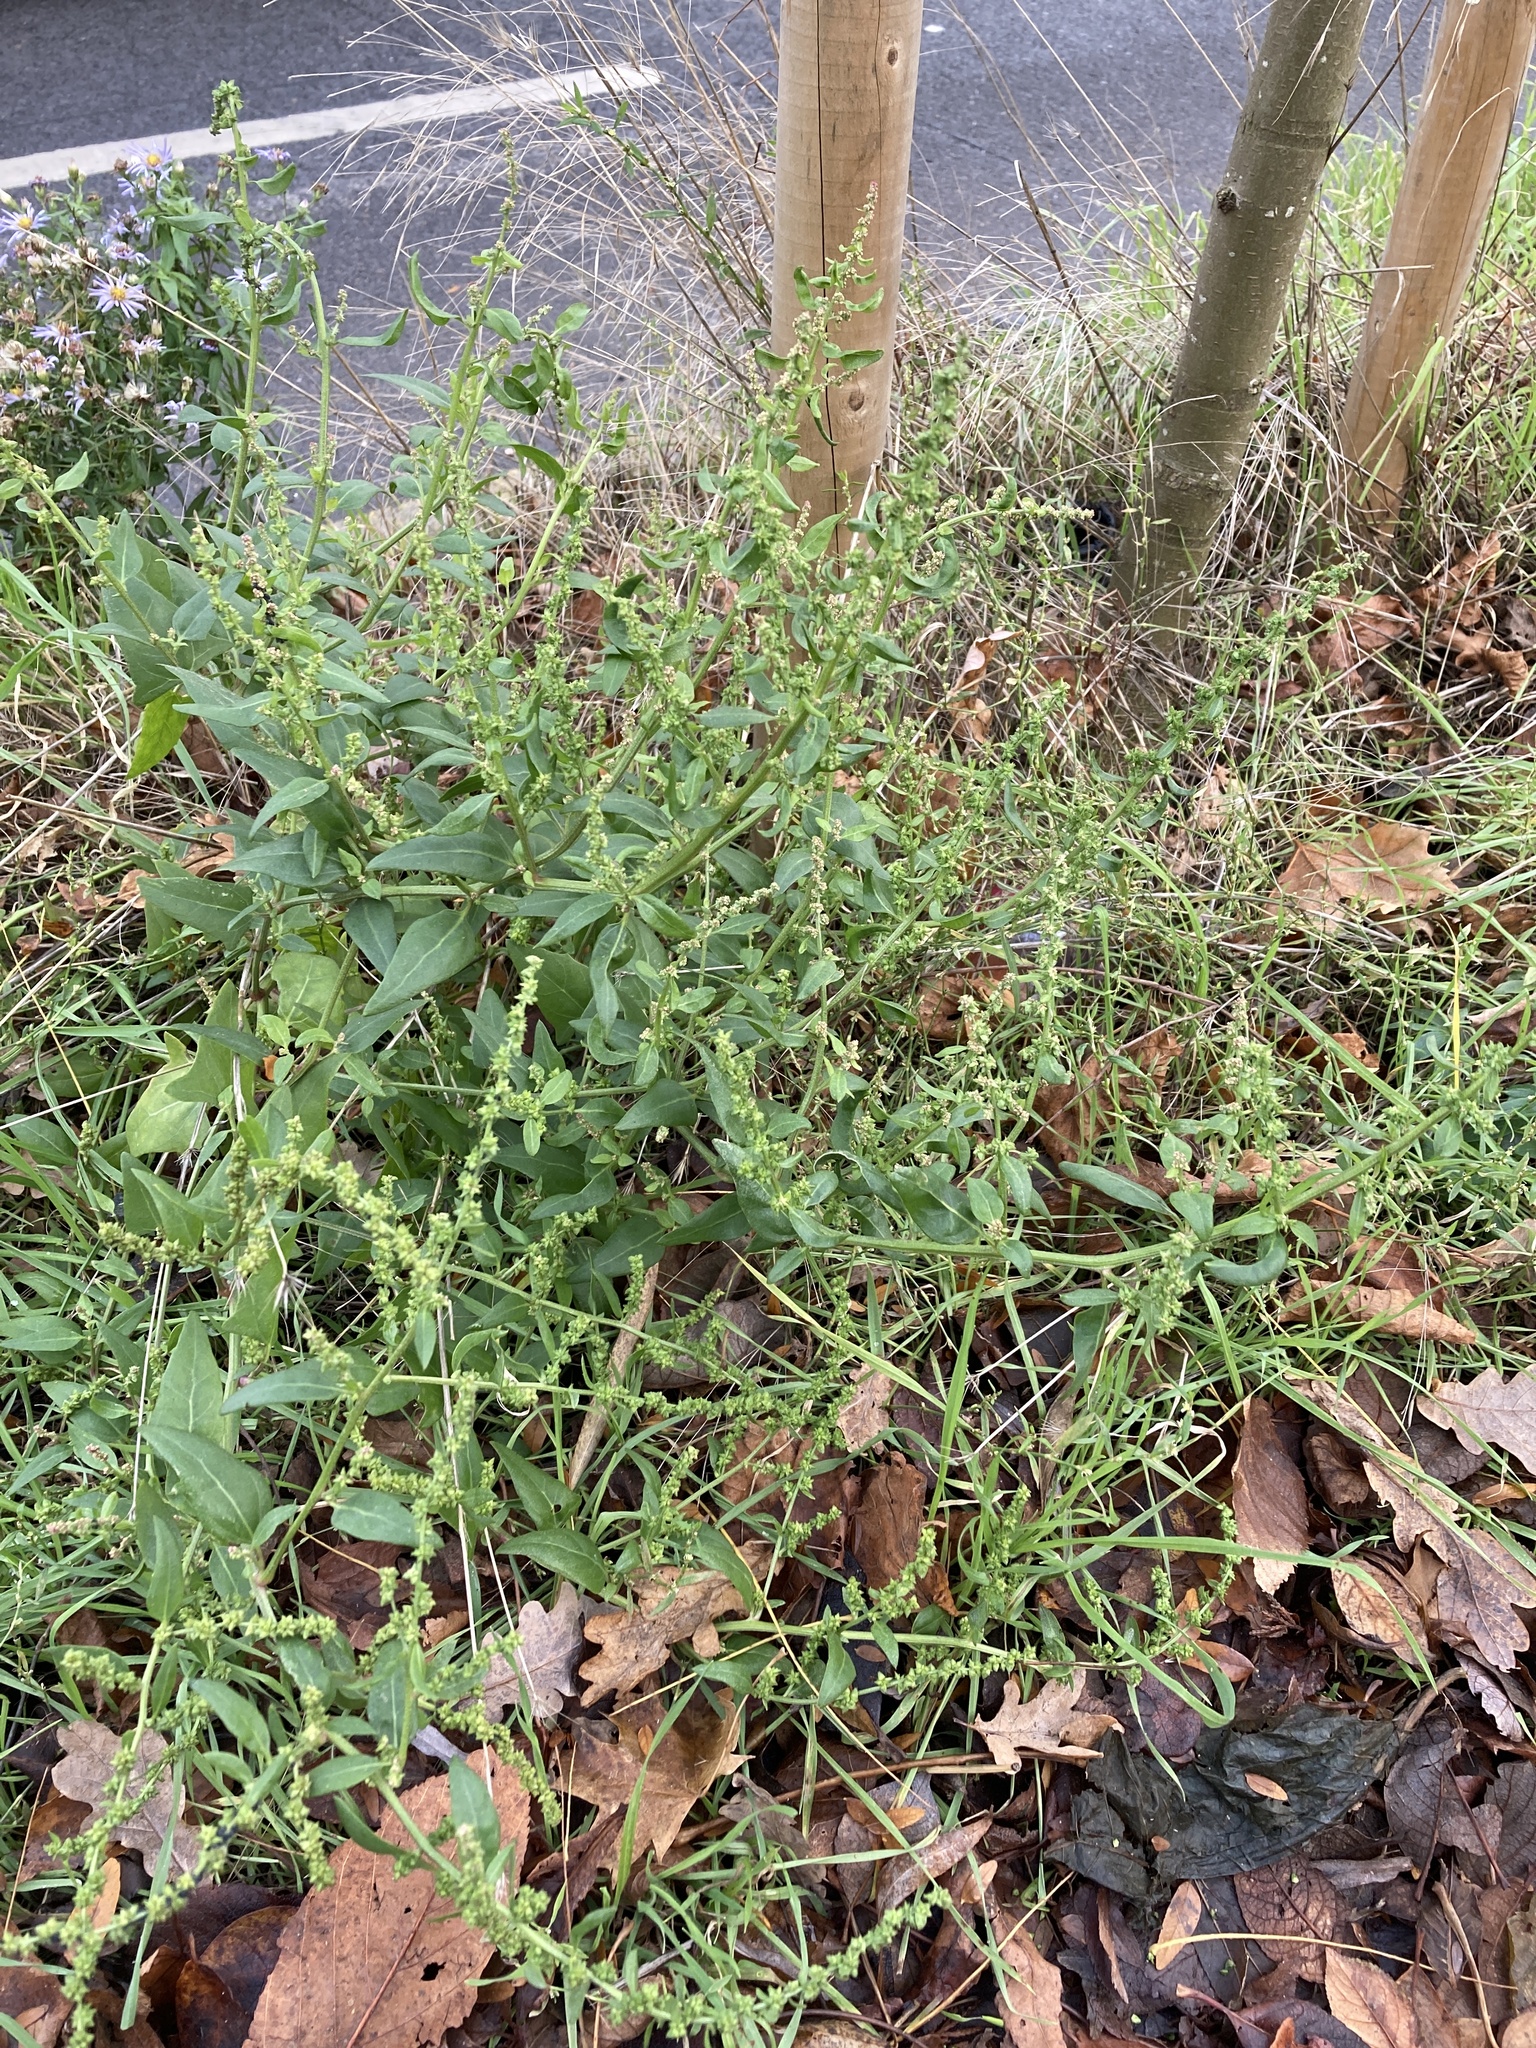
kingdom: Plantae
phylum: Tracheophyta
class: Magnoliopsida
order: Caryophyllales
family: Amaranthaceae
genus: Atriplex
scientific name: Atriplex prostrata
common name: Spear-leaved orache
